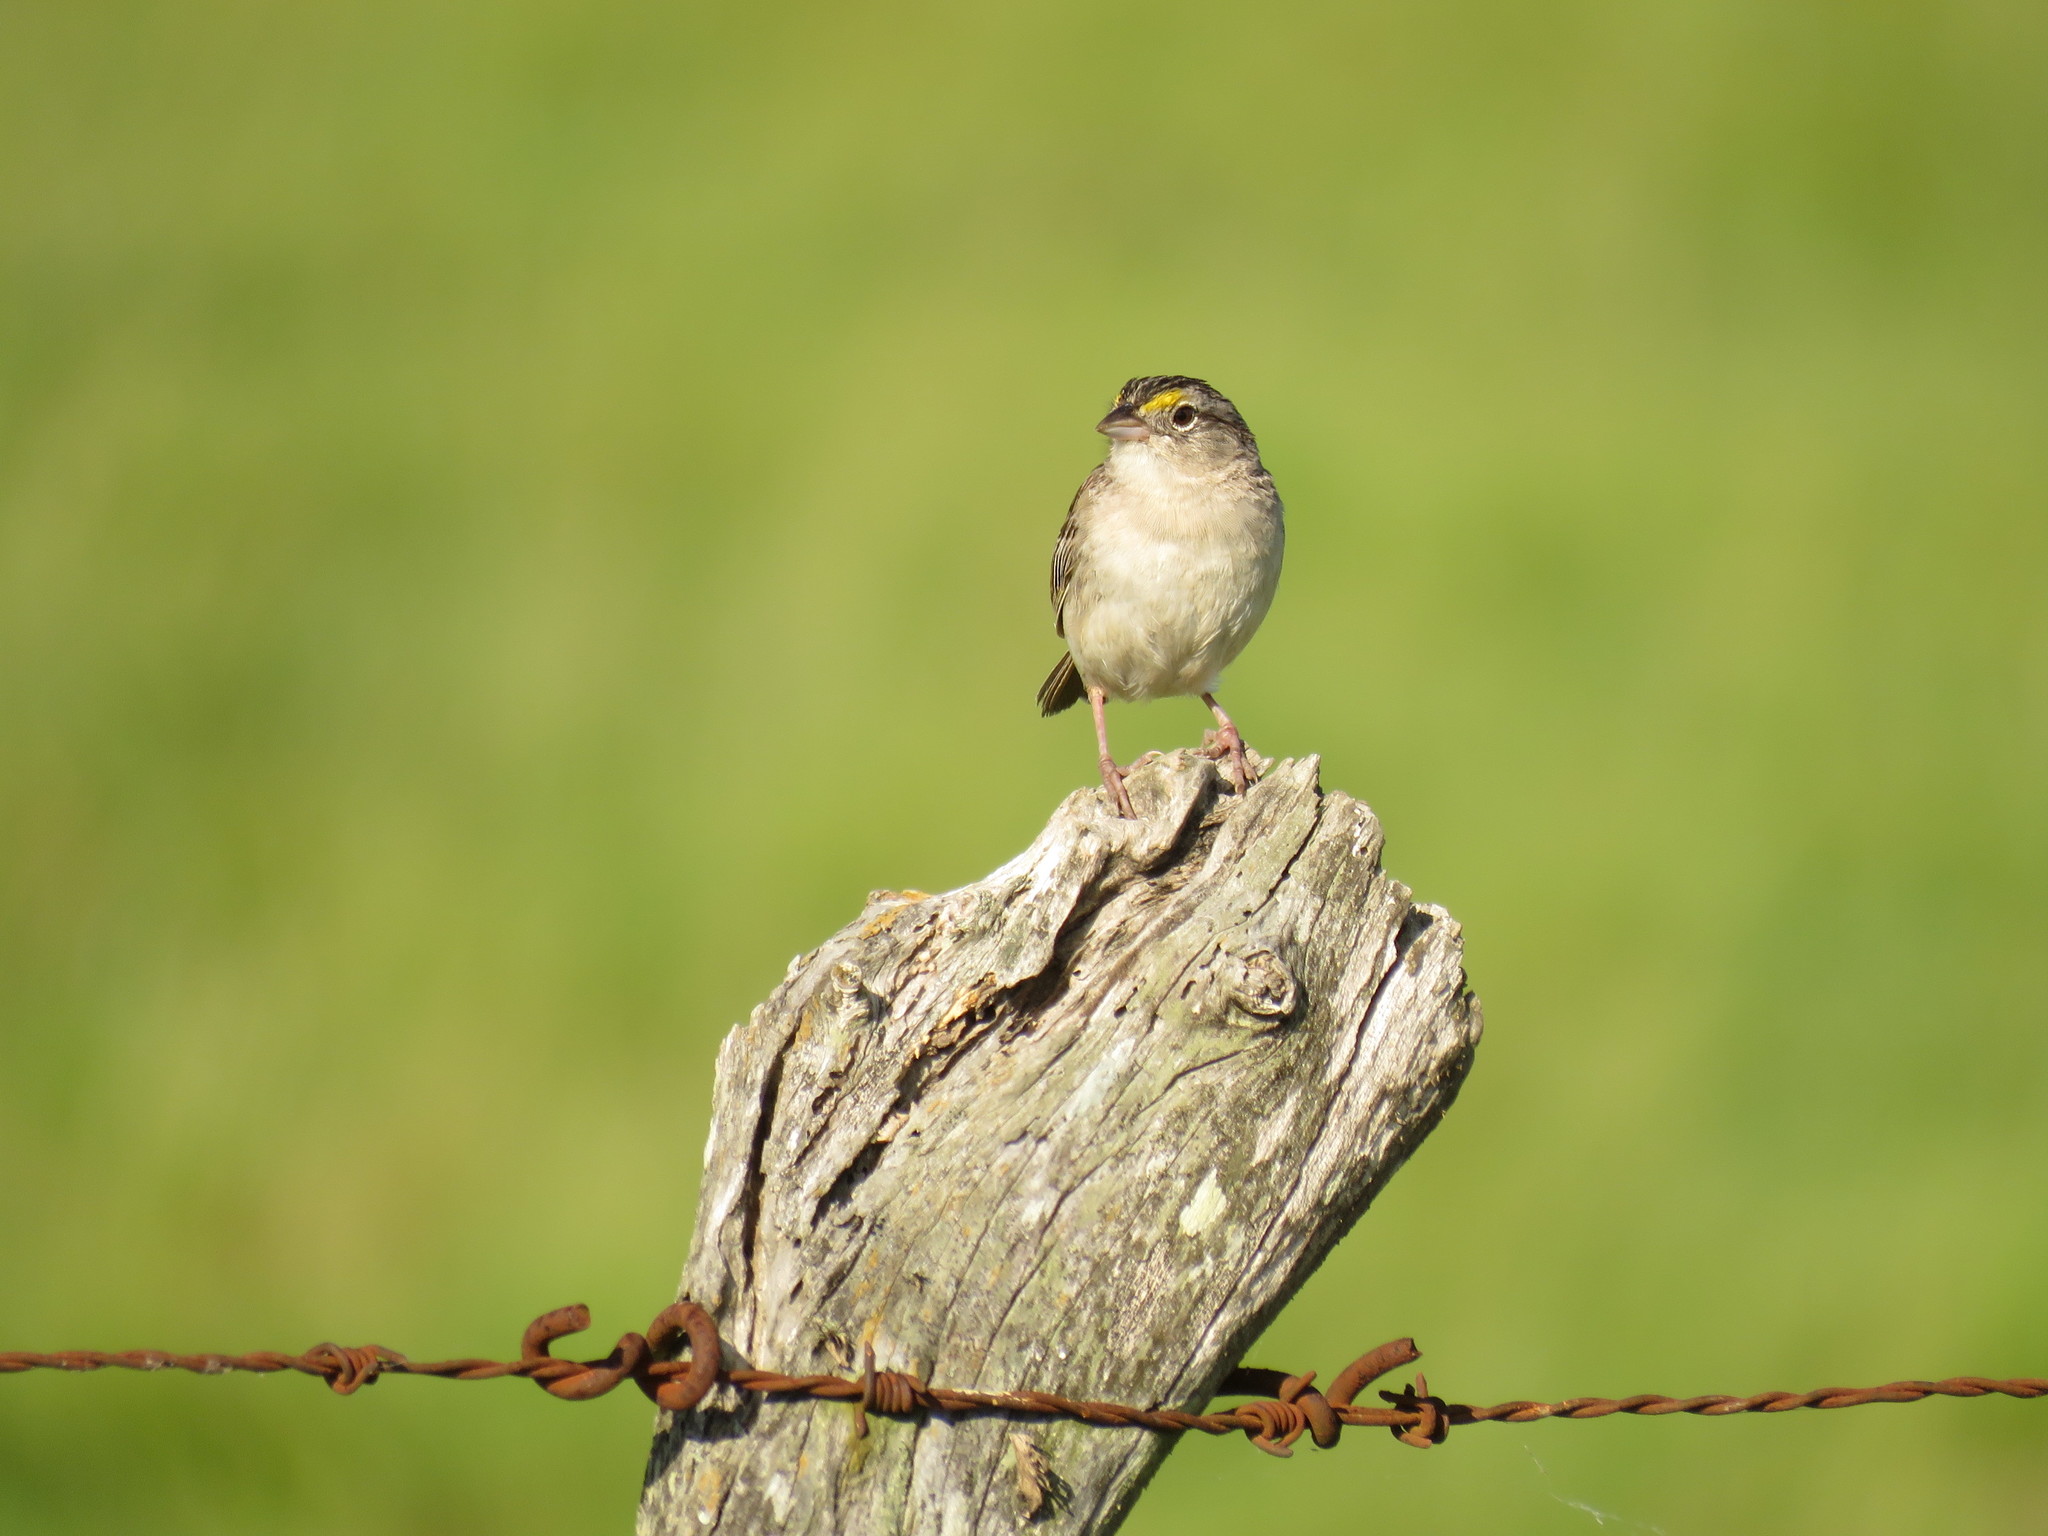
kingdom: Animalia
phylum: Chordata
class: Aves
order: Passeriformes
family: Passerellidae
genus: Ammodramus
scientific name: Ammodramus humeralis
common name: Grassland sparrow
